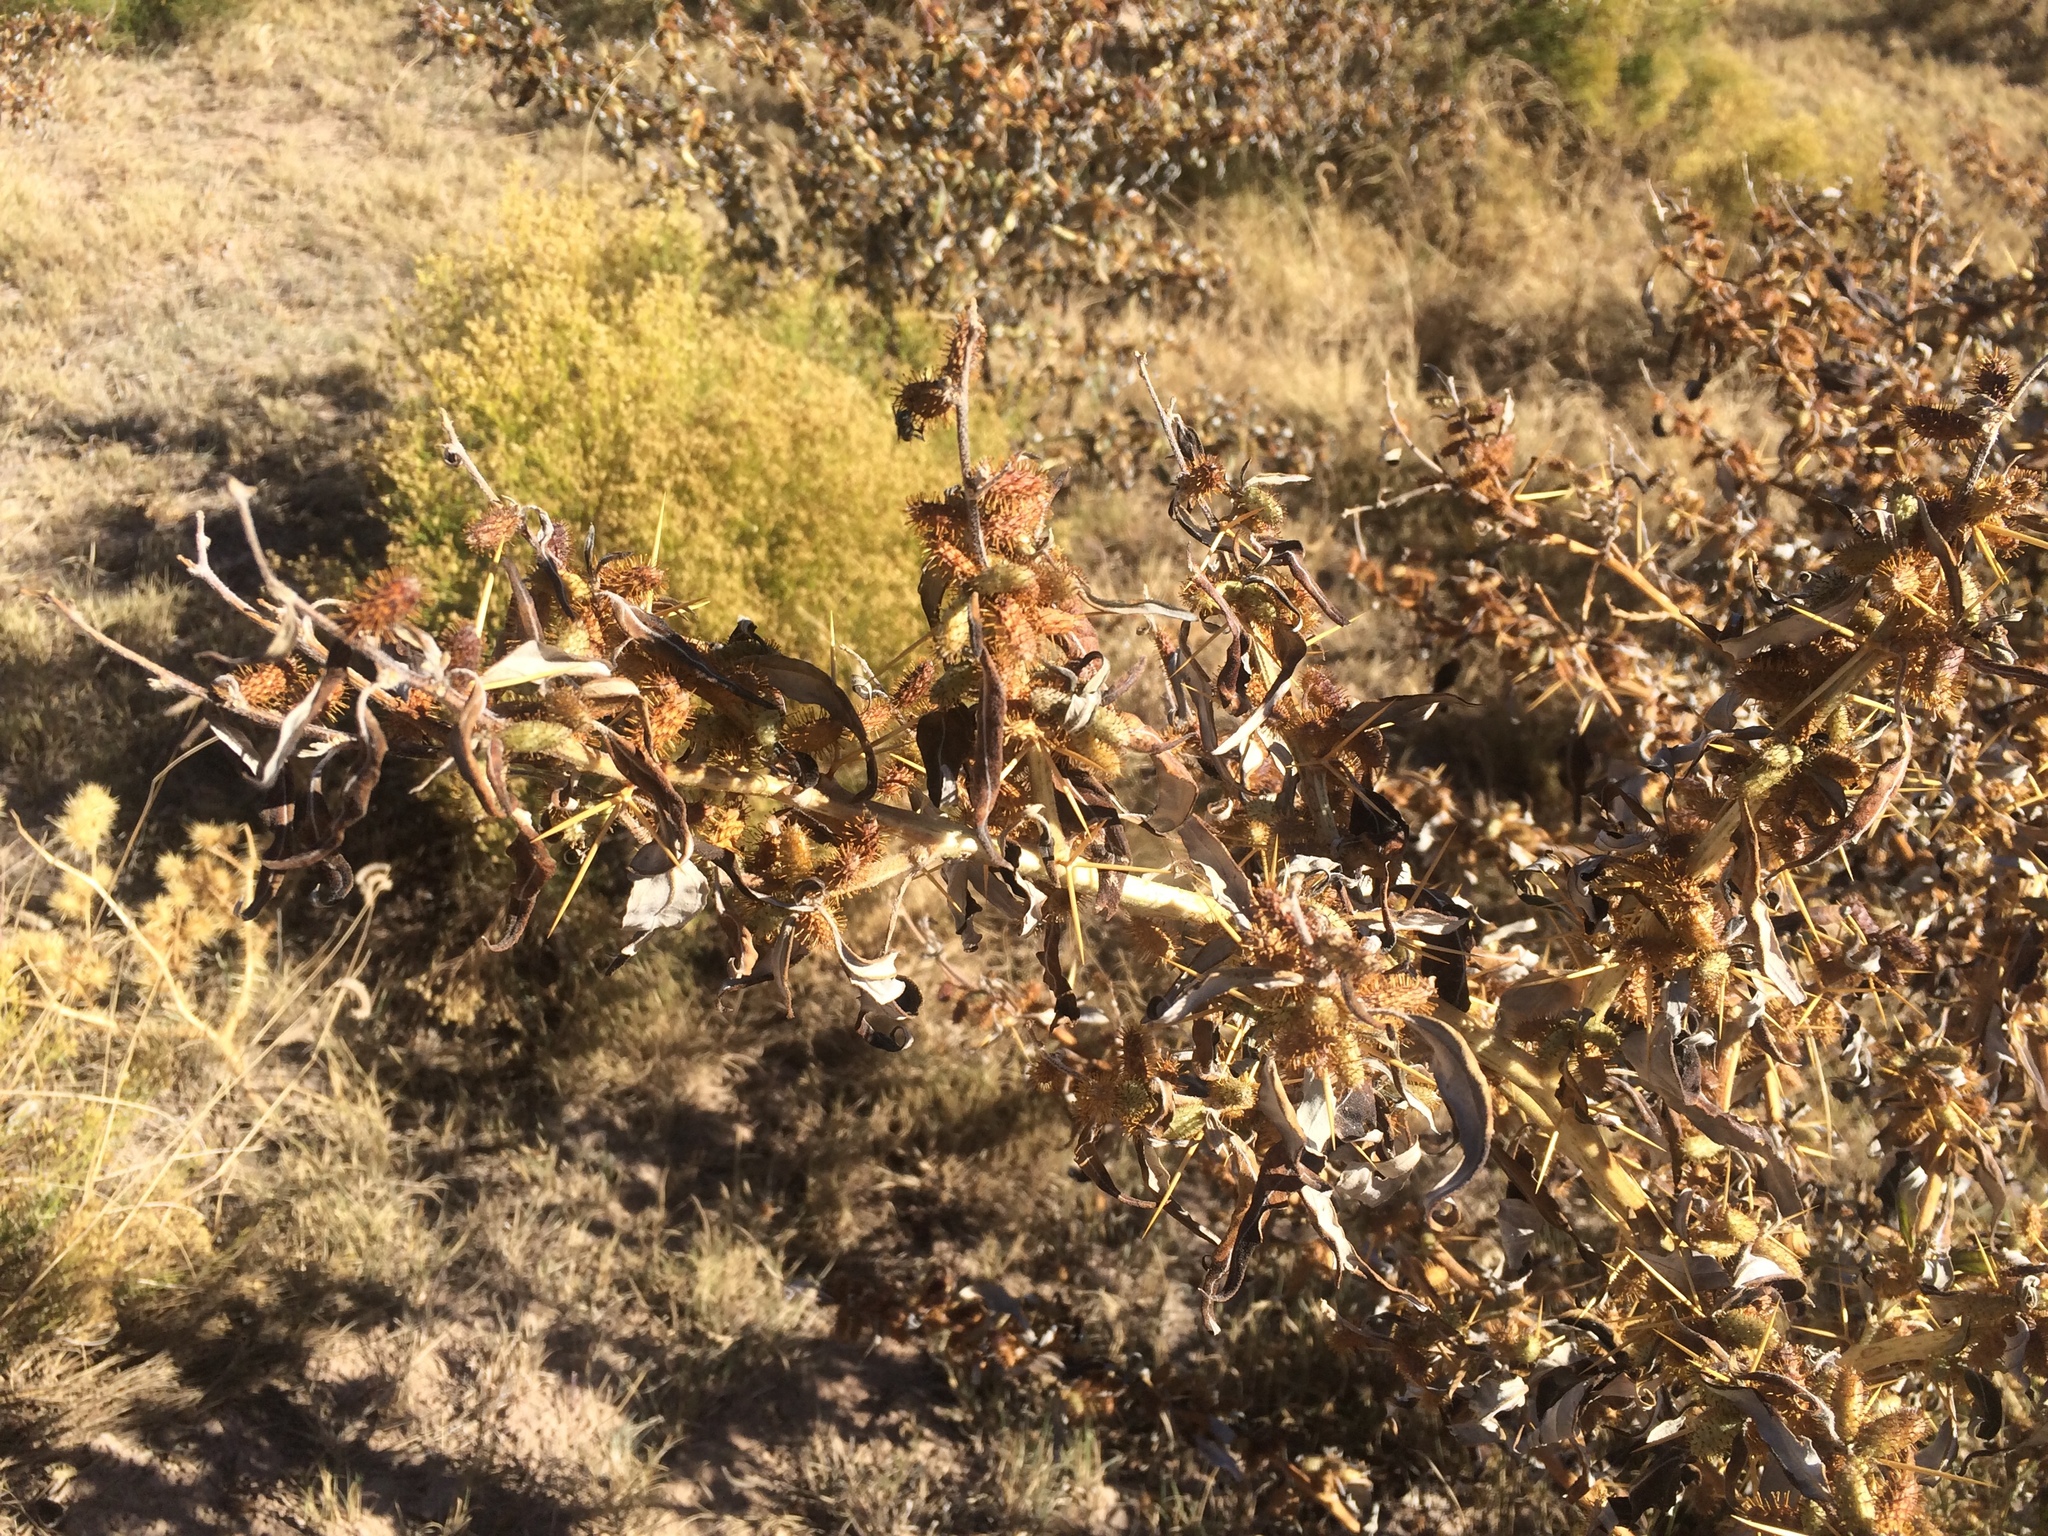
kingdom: Plantae
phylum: Tracheophyta
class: Magnoliopsida
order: Asterales
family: Asteraceae
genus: Xanthium
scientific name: Xanthium spinosum
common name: Spiny cocklebur
